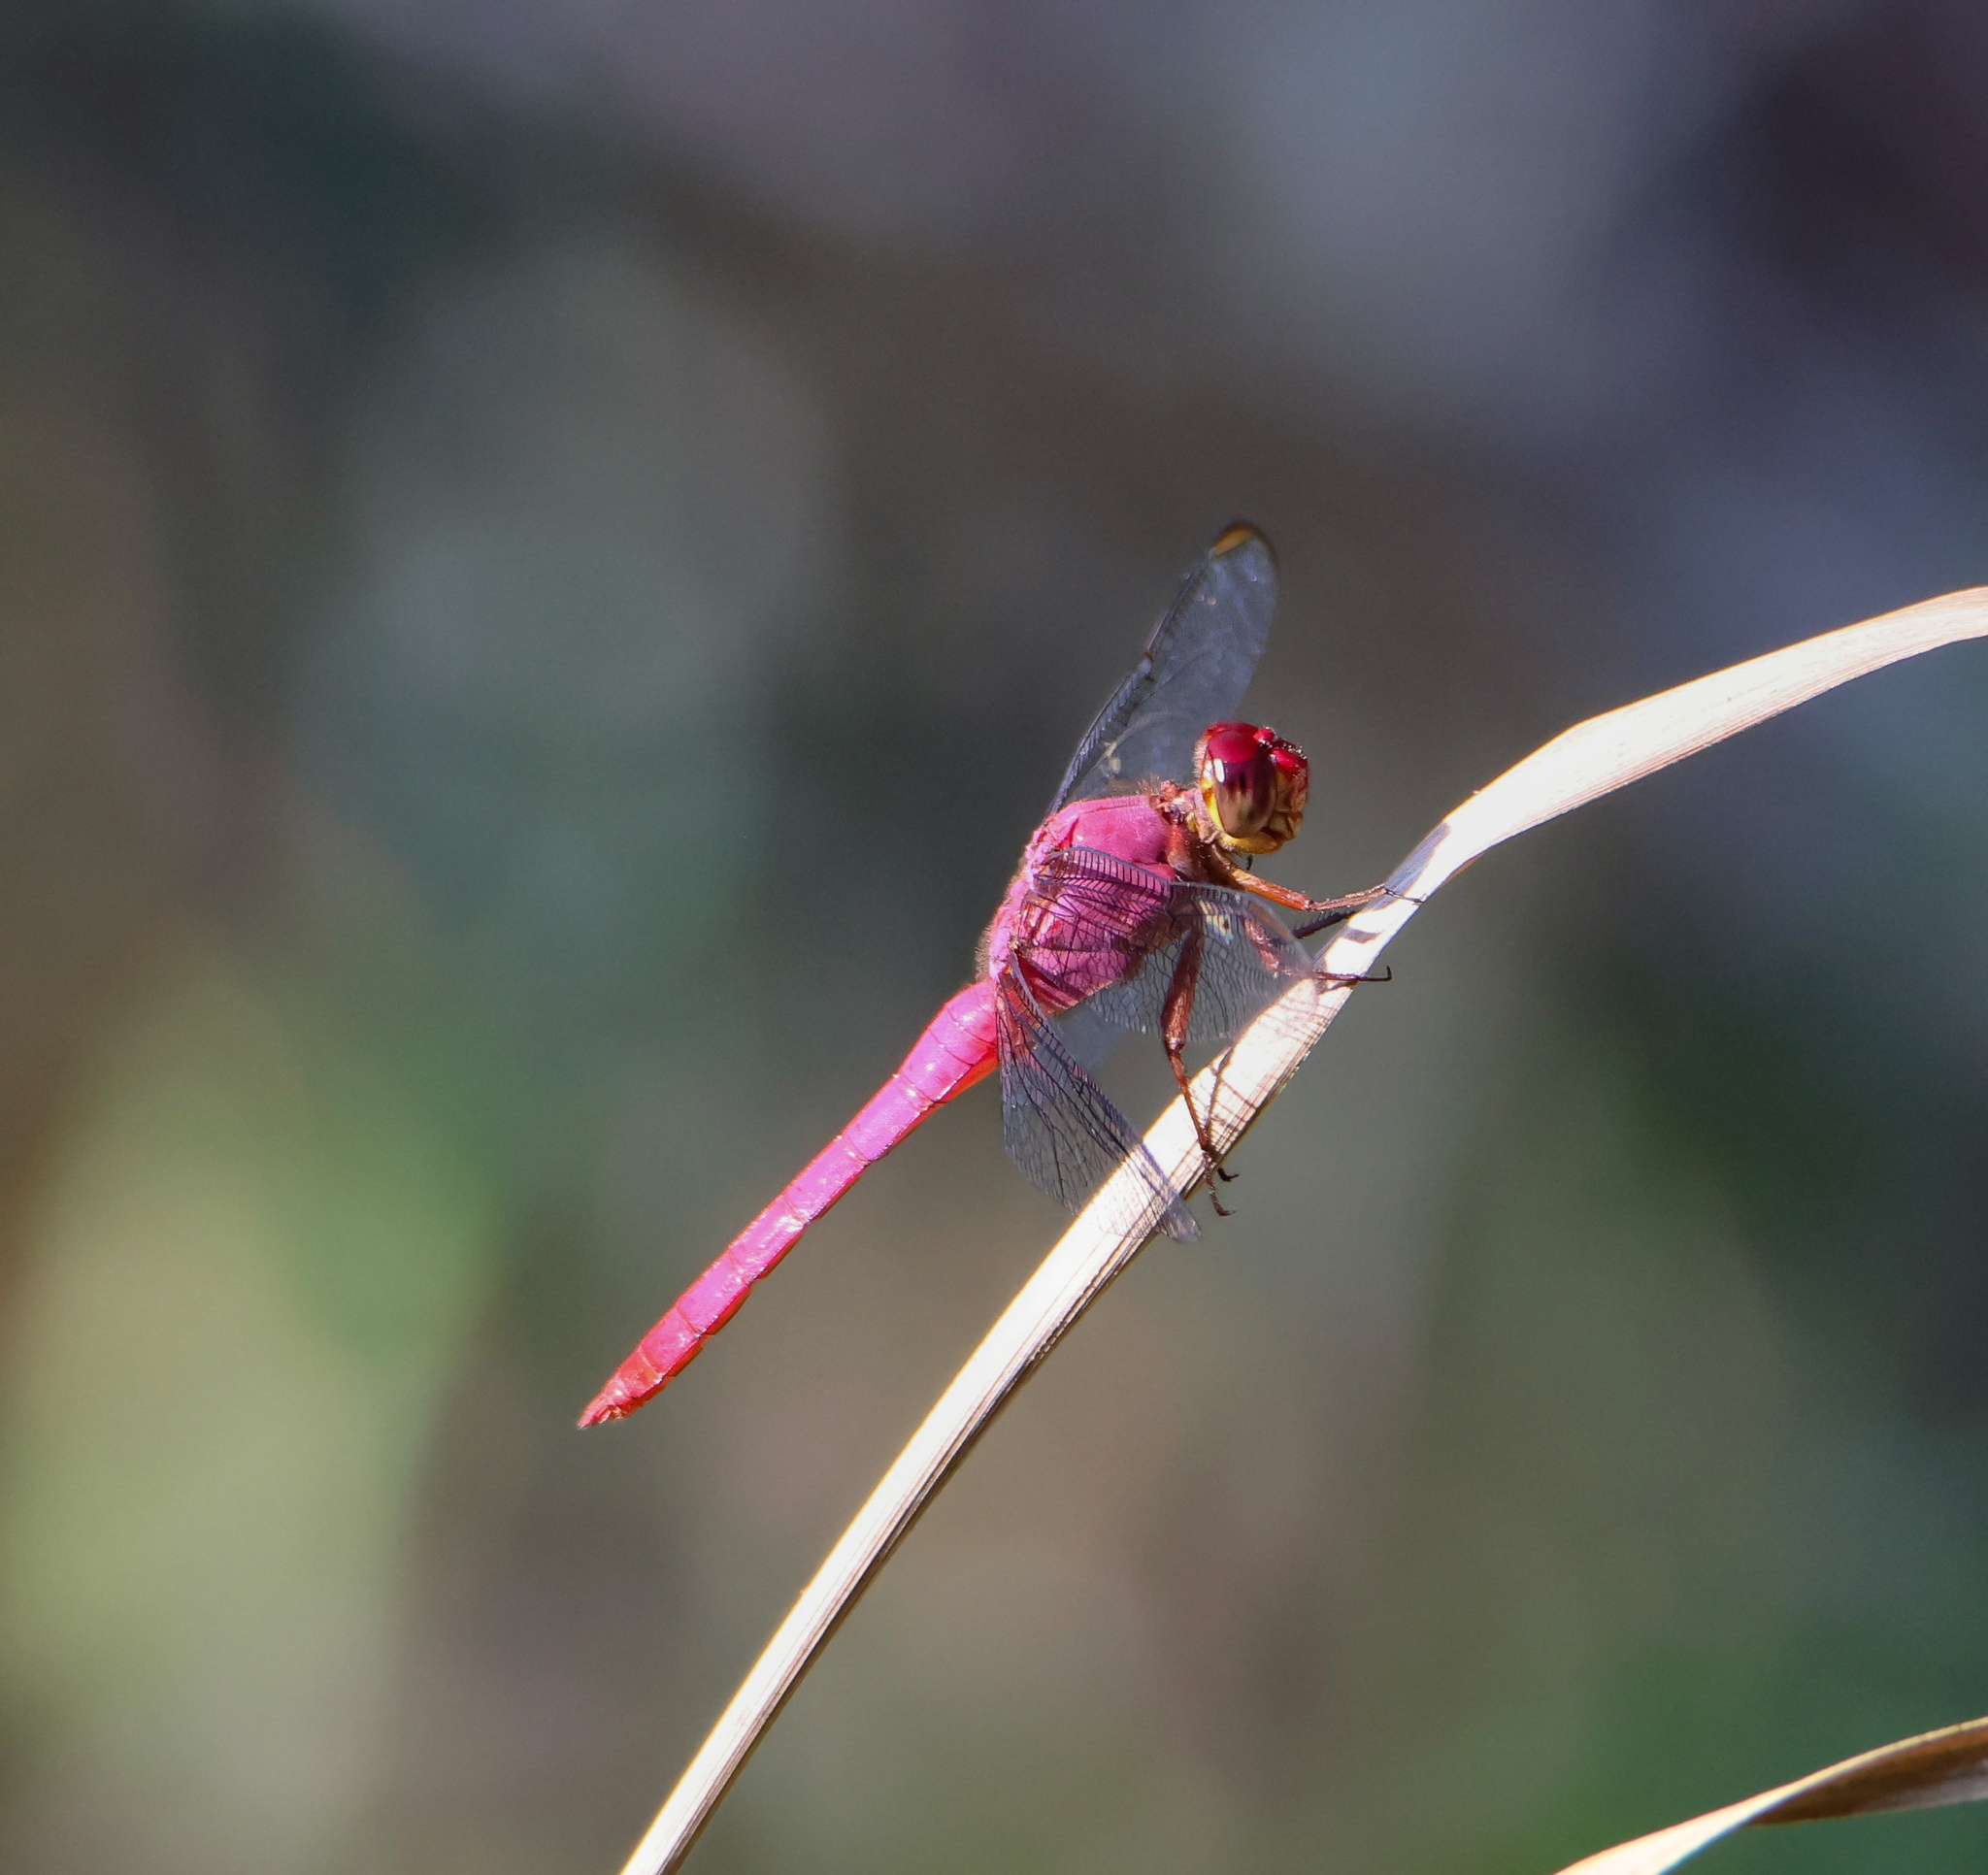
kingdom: Animalia
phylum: Arthropoda
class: Insecta
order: Odonata
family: Libellulidae
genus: Orthemis
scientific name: Orthemis discolor
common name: Carmine skimmer
